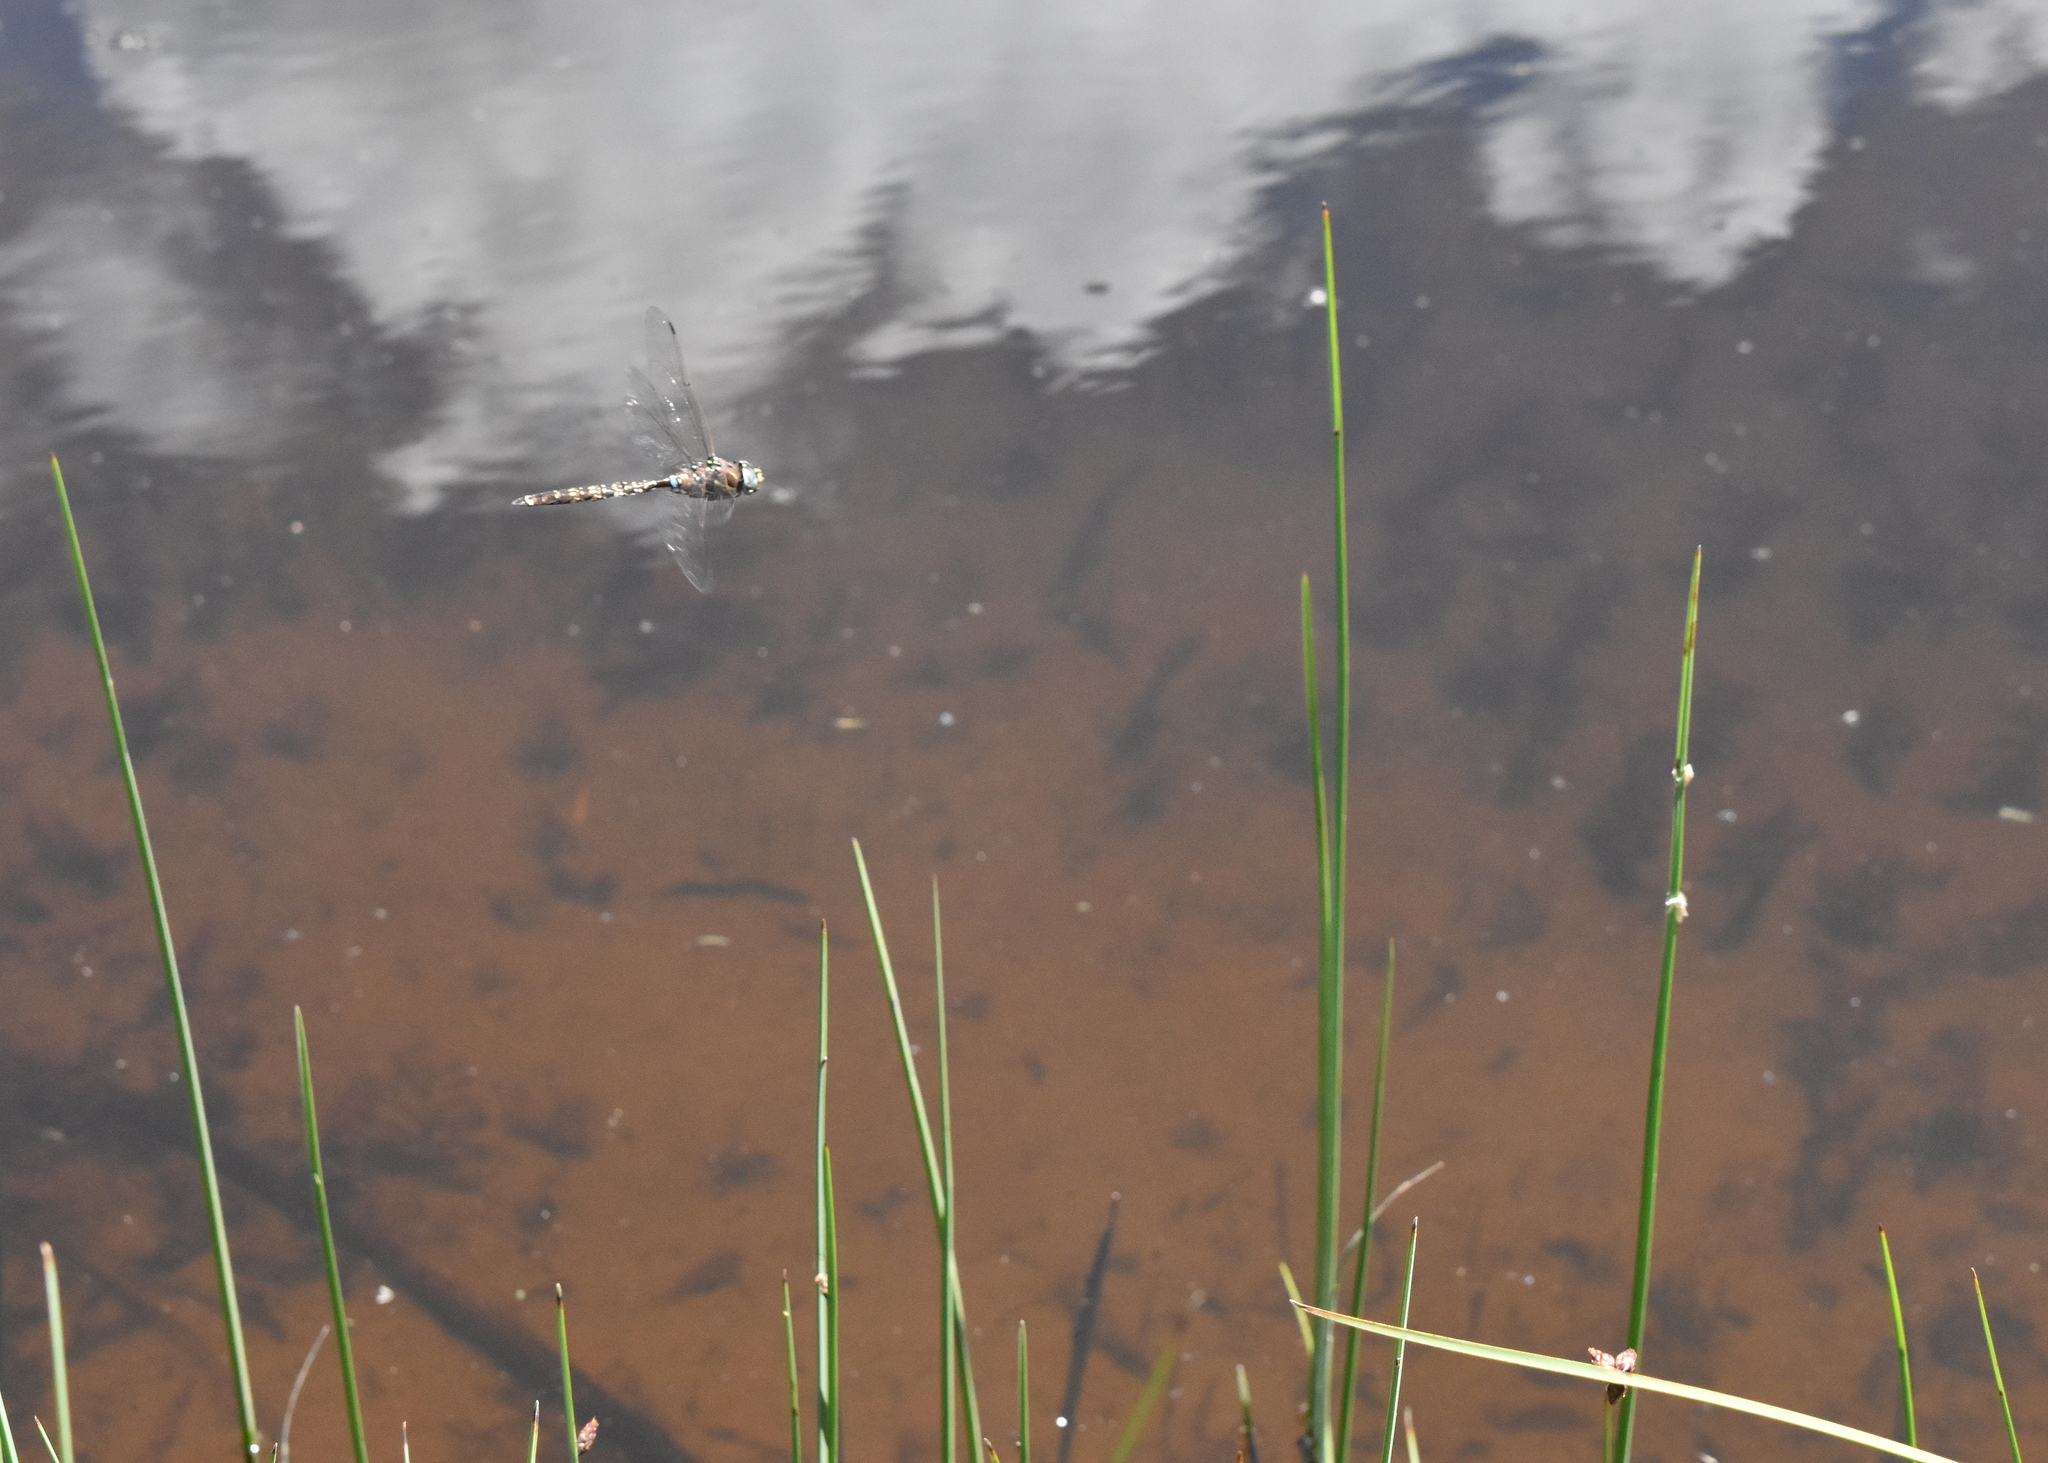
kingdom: Animalia
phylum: Arthropoda
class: Insecta
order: Odonata
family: Aeshnidae
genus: Aeshna
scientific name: Aeshna brevistyla
